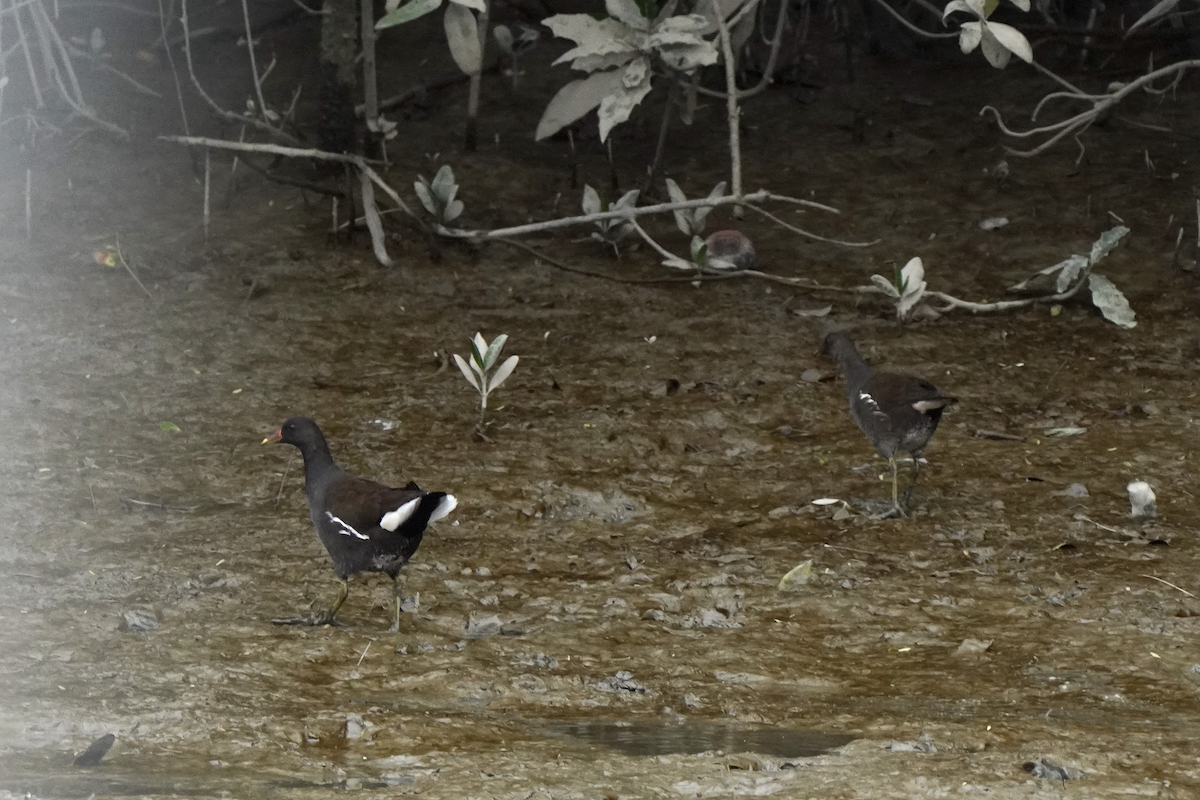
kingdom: Animalia
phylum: Chordata
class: Aves
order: Gruiformes
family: Rallidae
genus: Gallinula
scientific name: Gallinula chloropus
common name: Common moorhen
